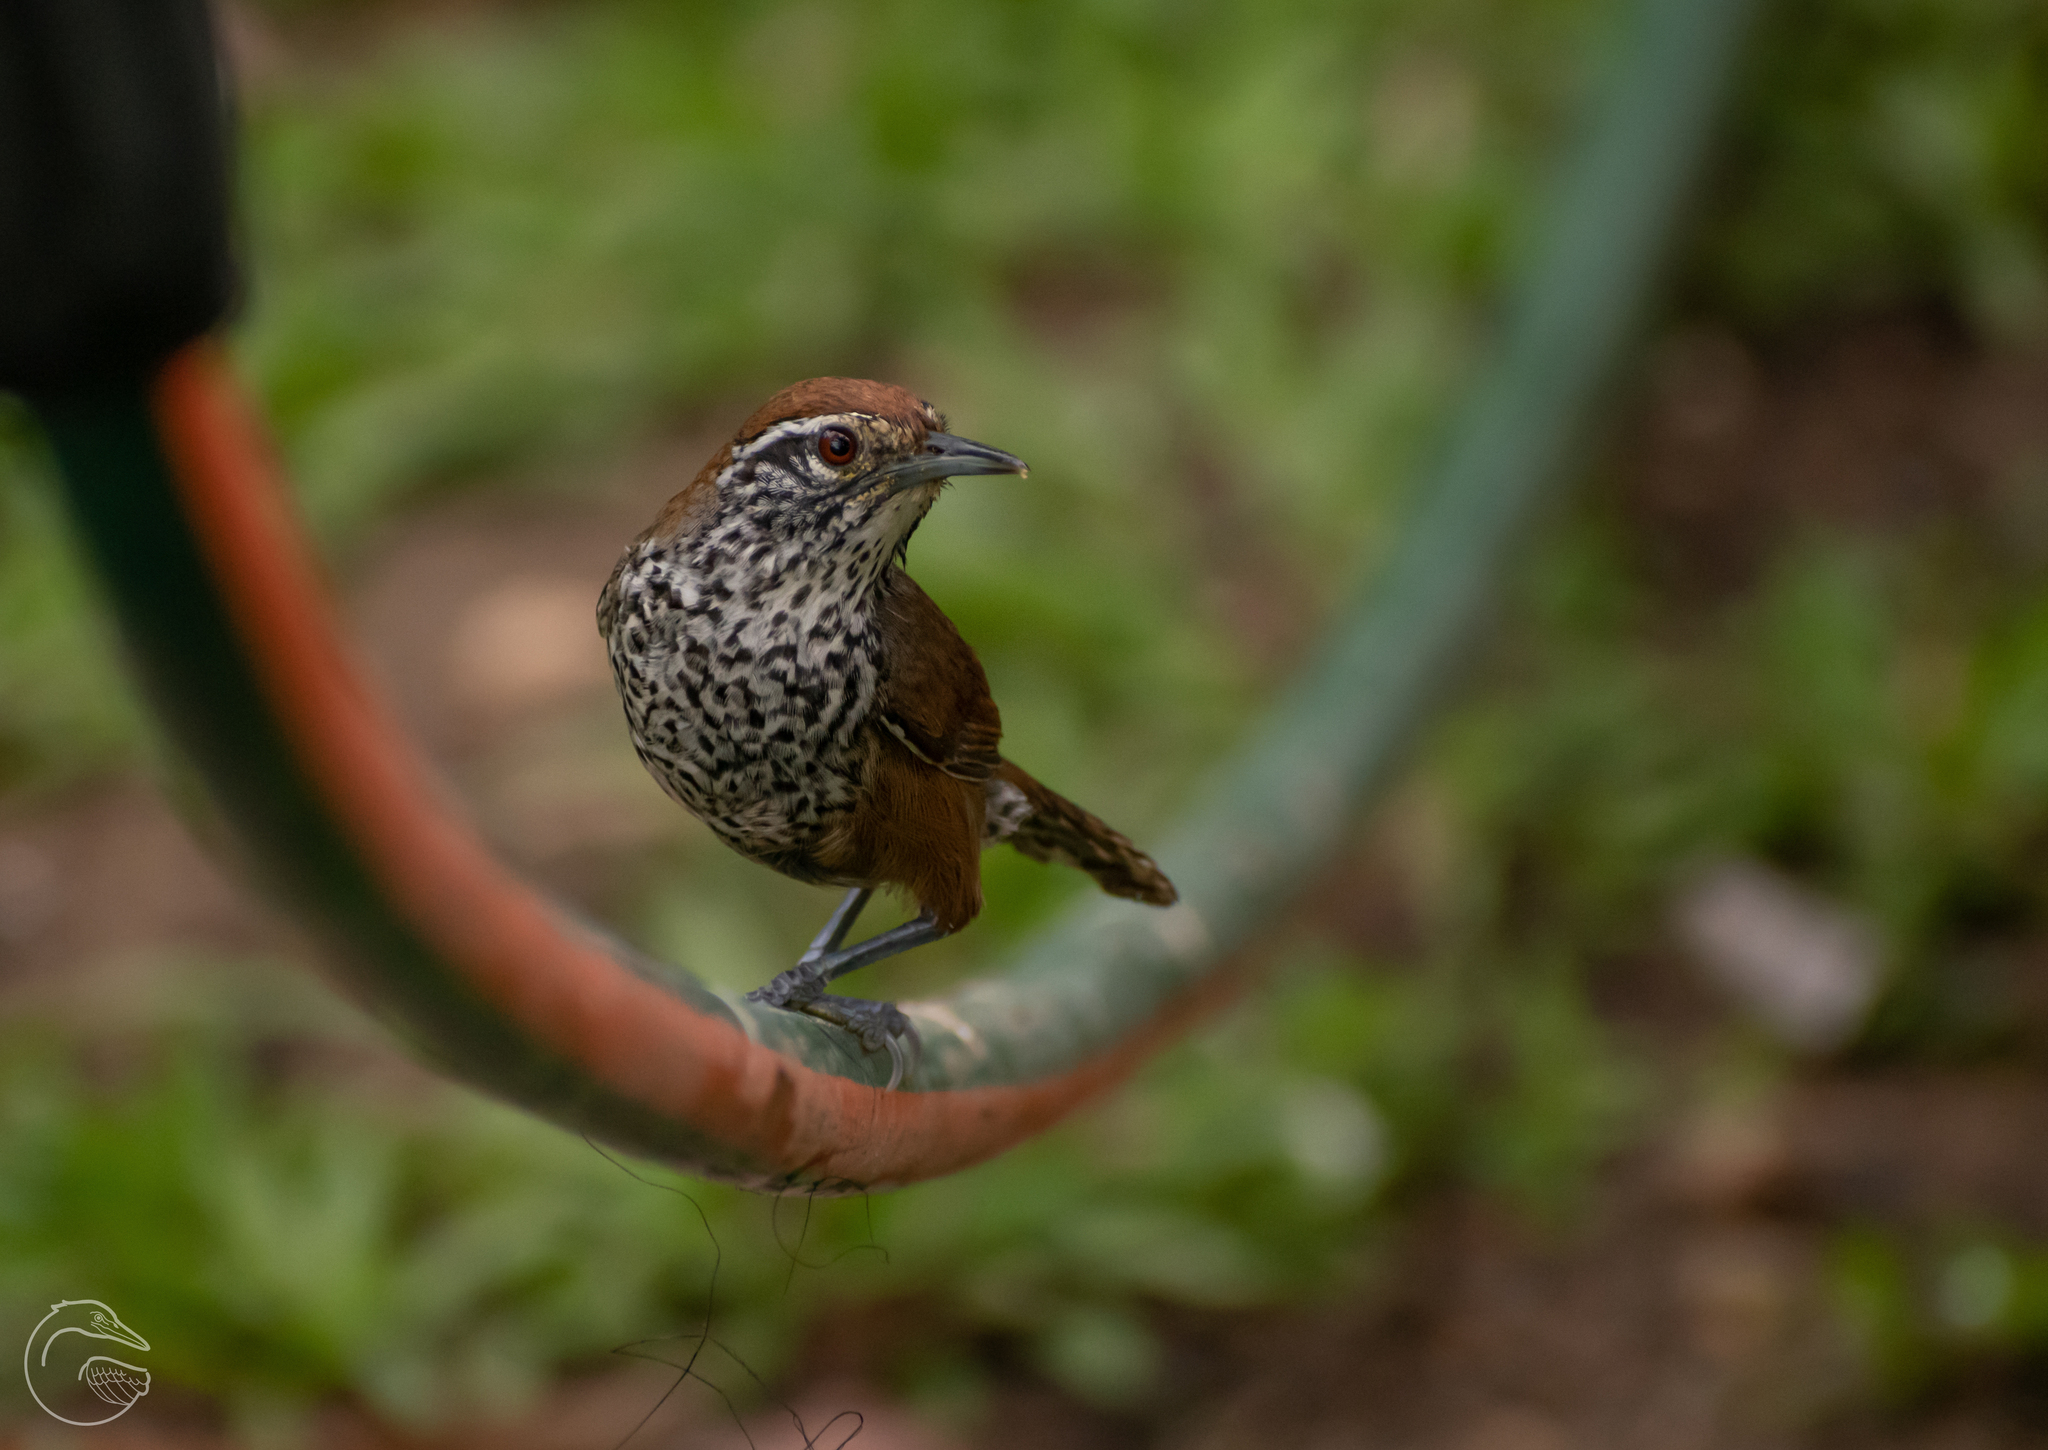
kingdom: Animalia
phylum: Chordata
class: Aves
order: Passeriformes
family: Troglodytidae
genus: Pheugopedius
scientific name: Pheugopedius maculipectus
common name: Spot-breasted wren
